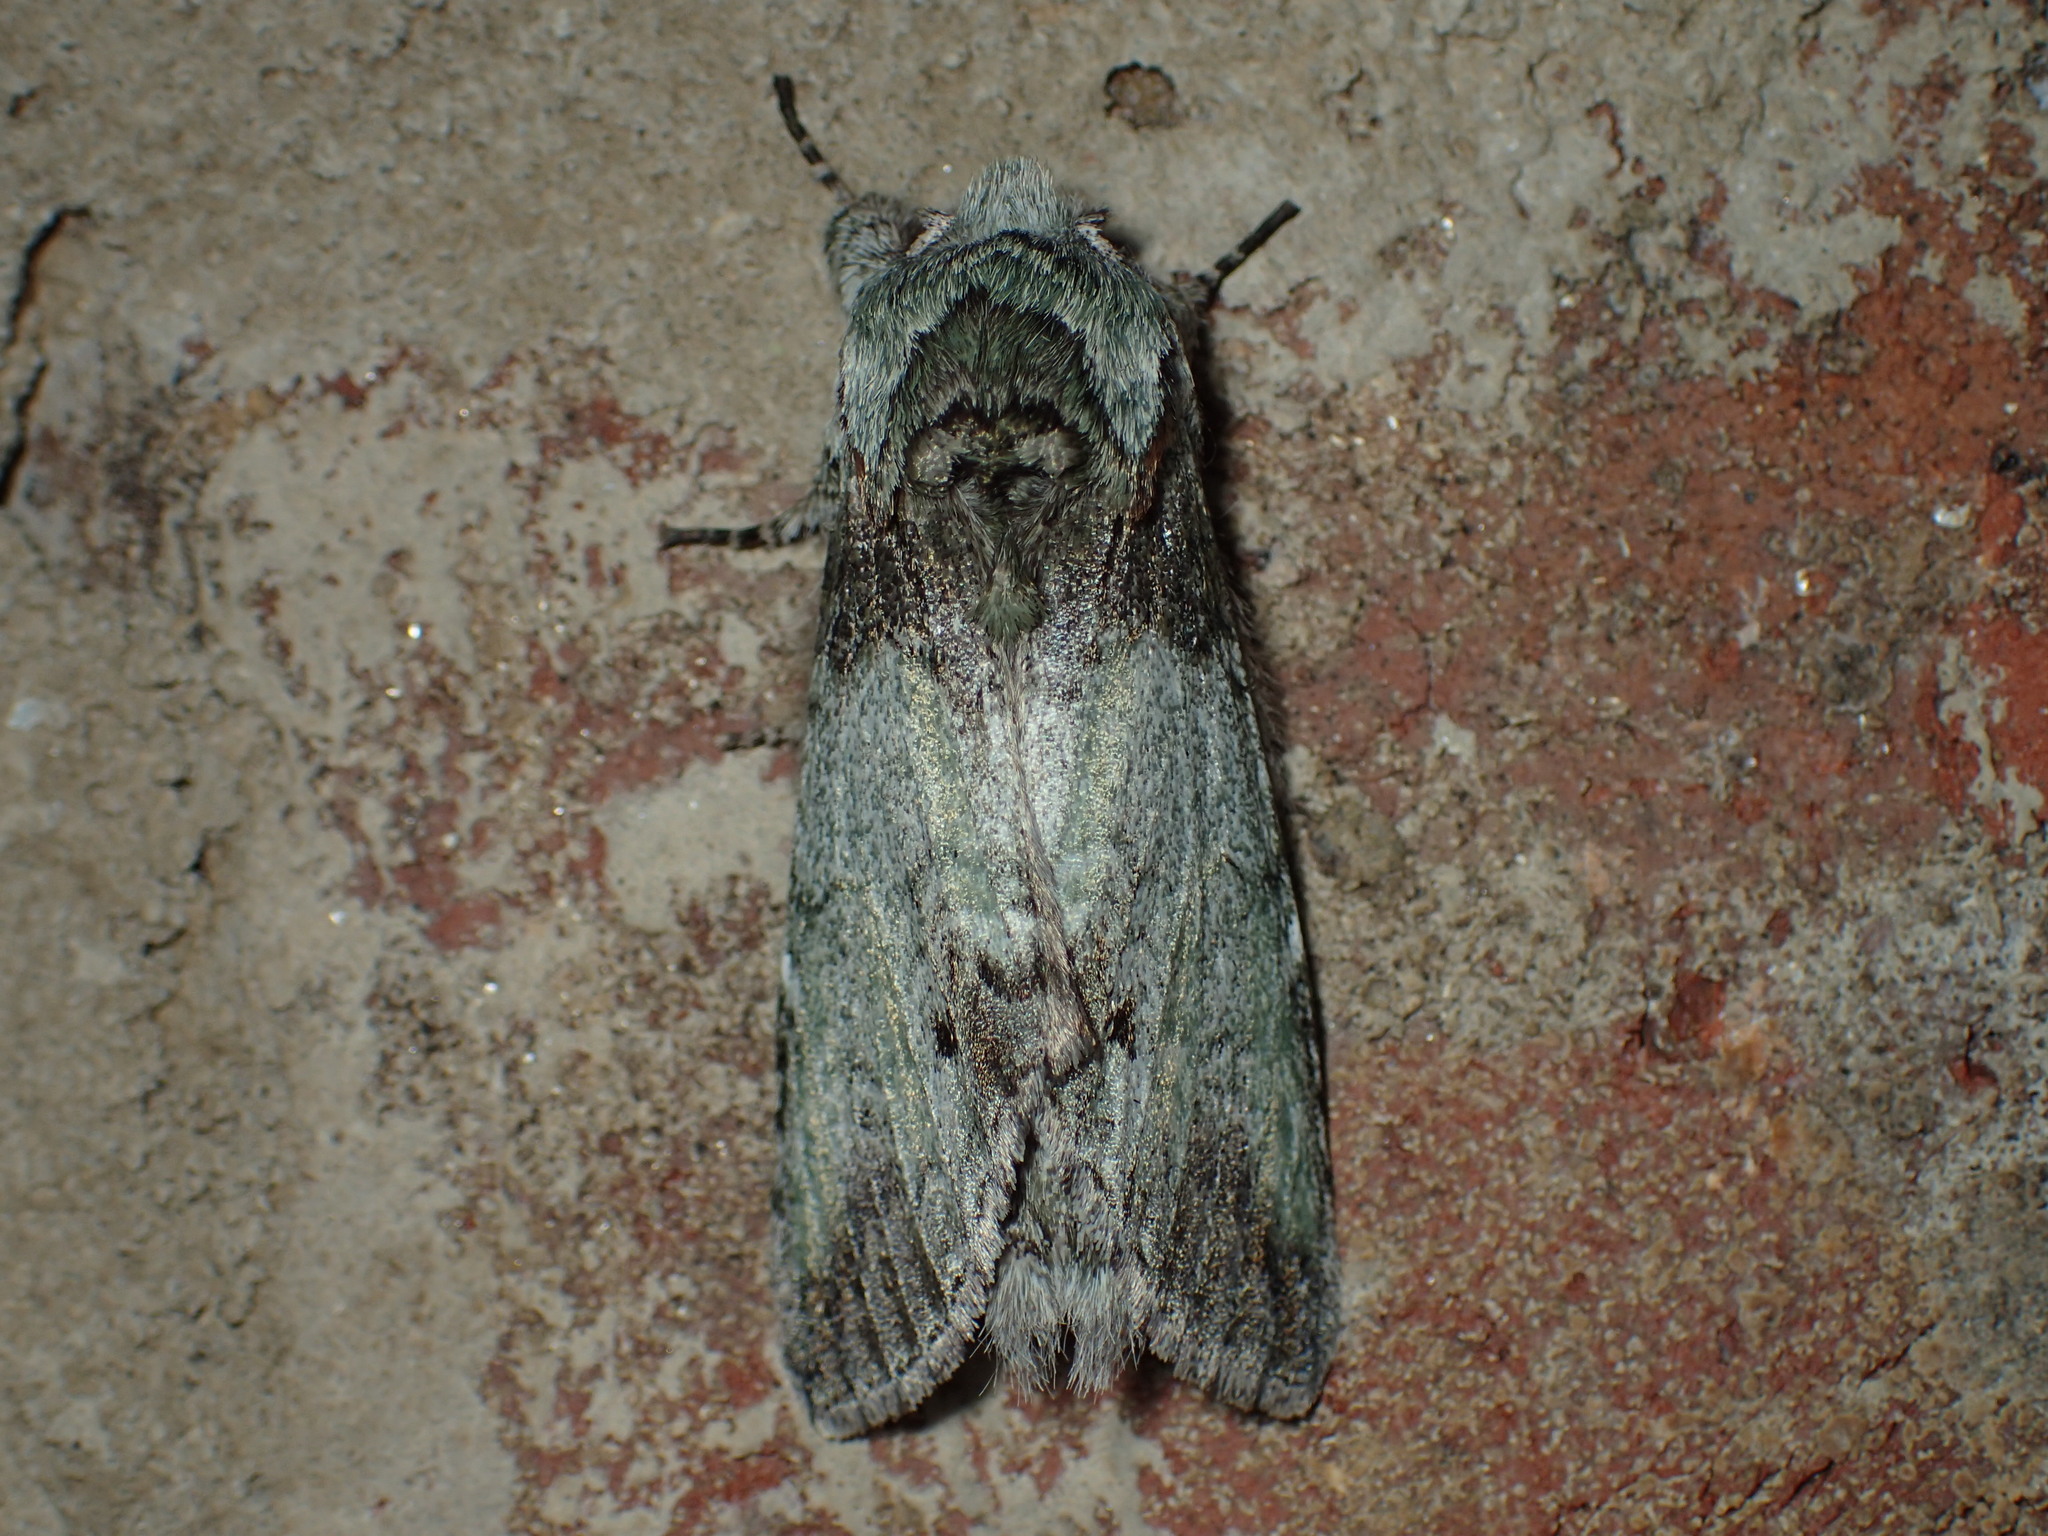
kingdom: Animalia
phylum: Arthropoda
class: Insecta
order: Lepidoptera
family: Notodontidae
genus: Macrurocampa
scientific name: Macrurocampa marthesia
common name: Mottled prominent
